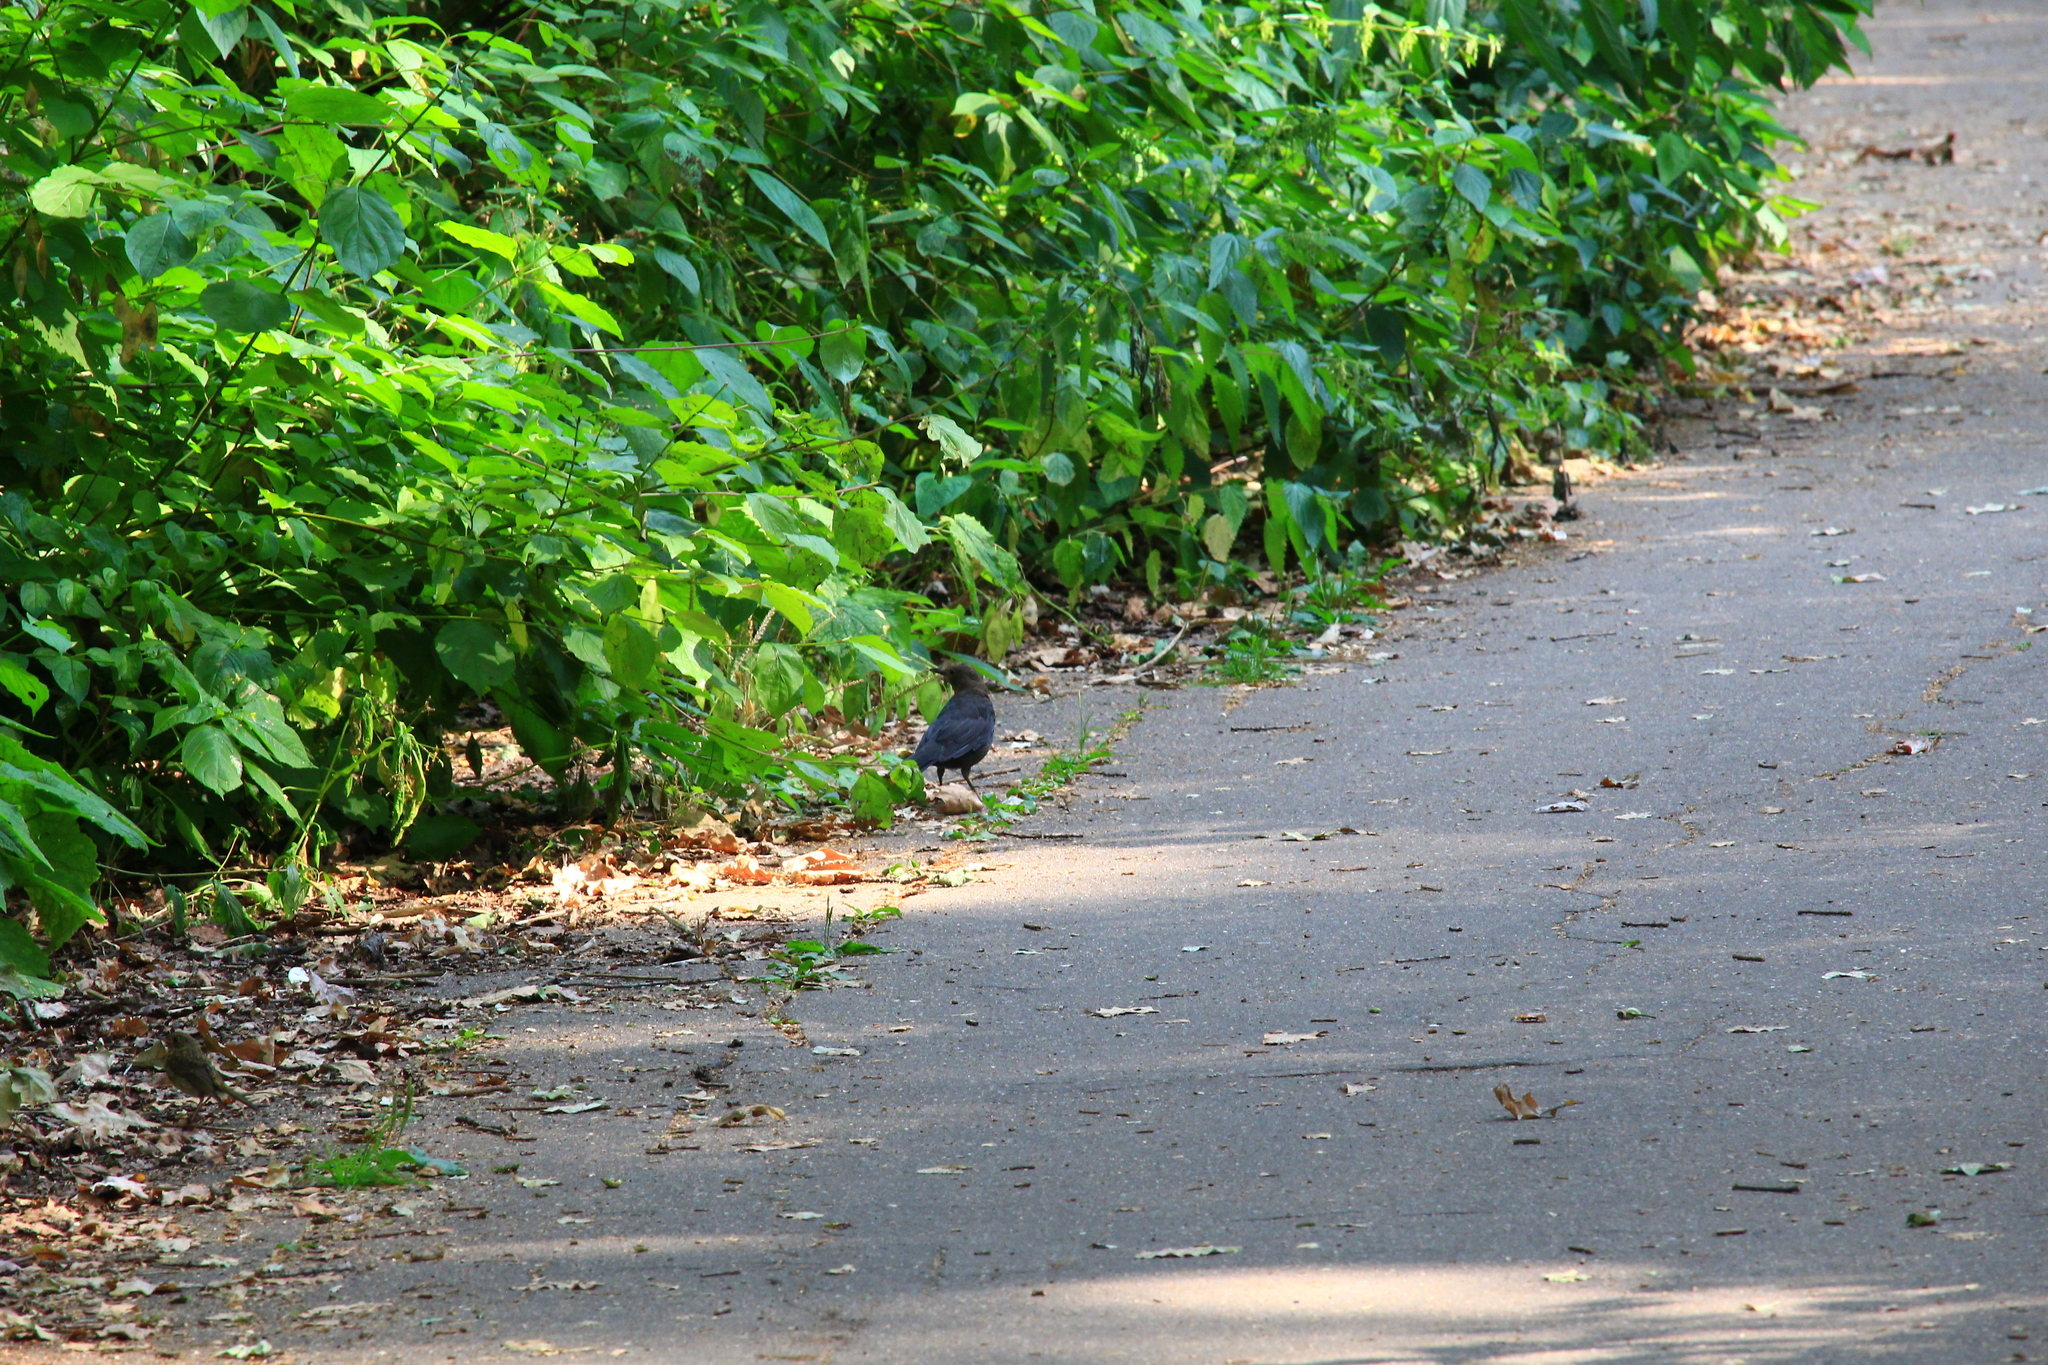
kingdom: Animalia
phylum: Chordata
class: Aves
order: Passeriformes
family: Turdidae
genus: Turdus
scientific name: Turdus merula
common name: Common blackbird
